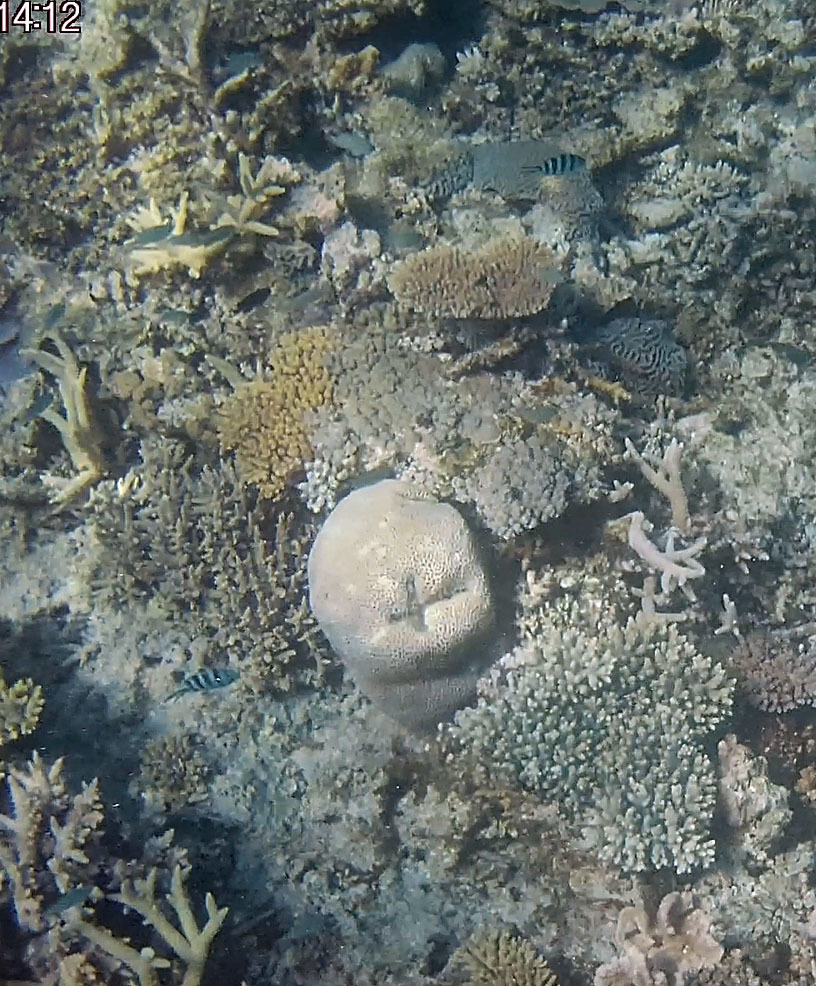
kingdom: Animalia
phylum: Chordata
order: Perciformes
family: Pomacentridae
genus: Abudefduf
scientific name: Abudefduf sexfasciatus
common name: Scissortail sergeant
